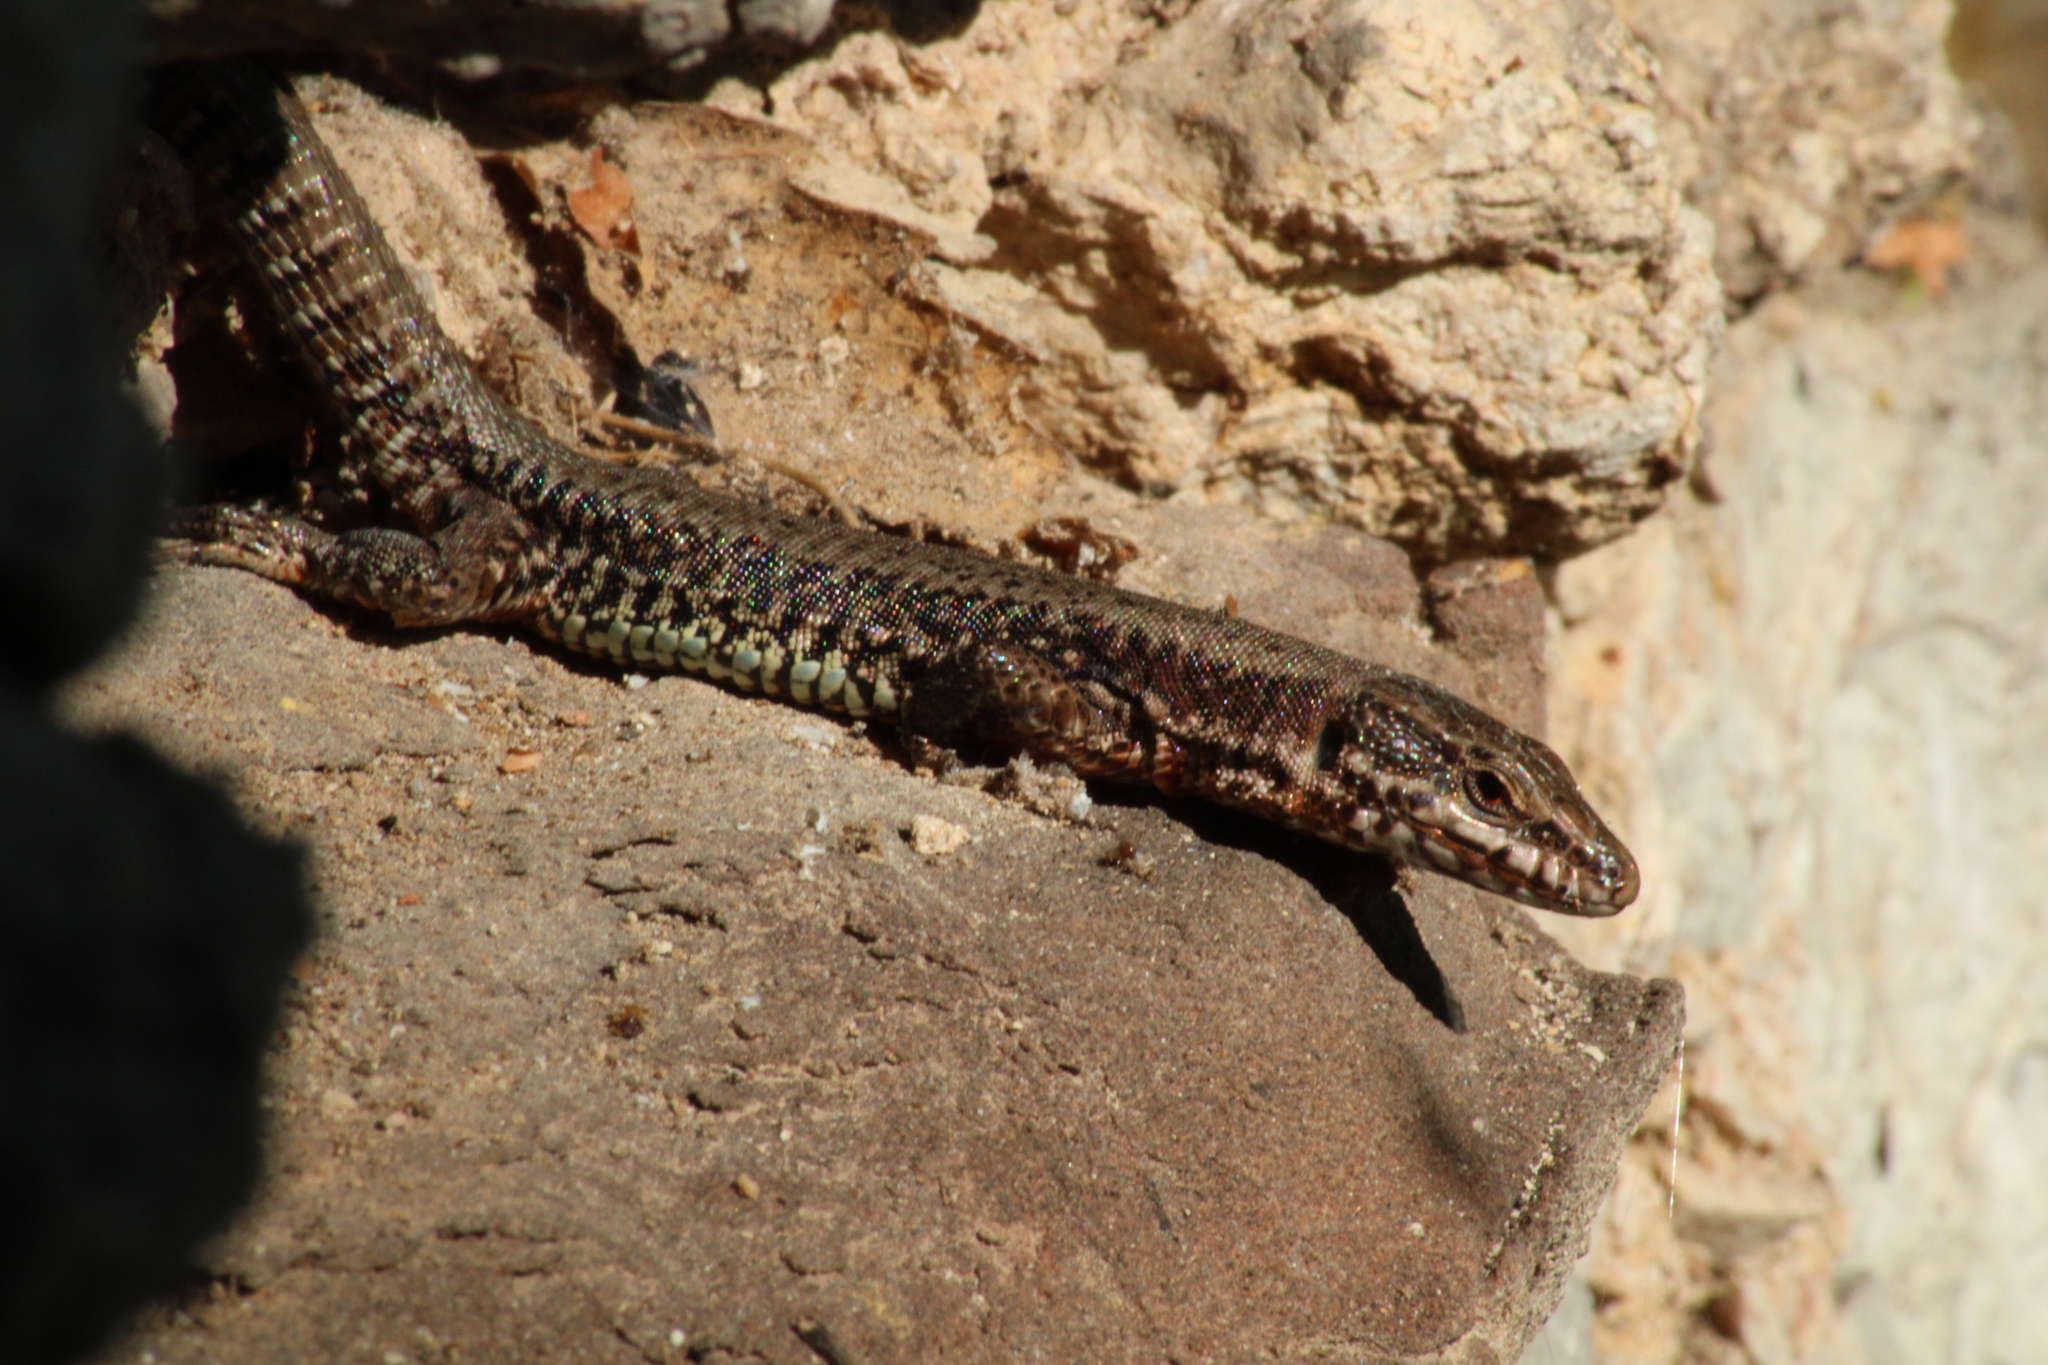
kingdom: Animalia
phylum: Chordata
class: Squamata
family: Lacertidae
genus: Podarcis
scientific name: Podarcis muralis
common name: Common wall lizard
